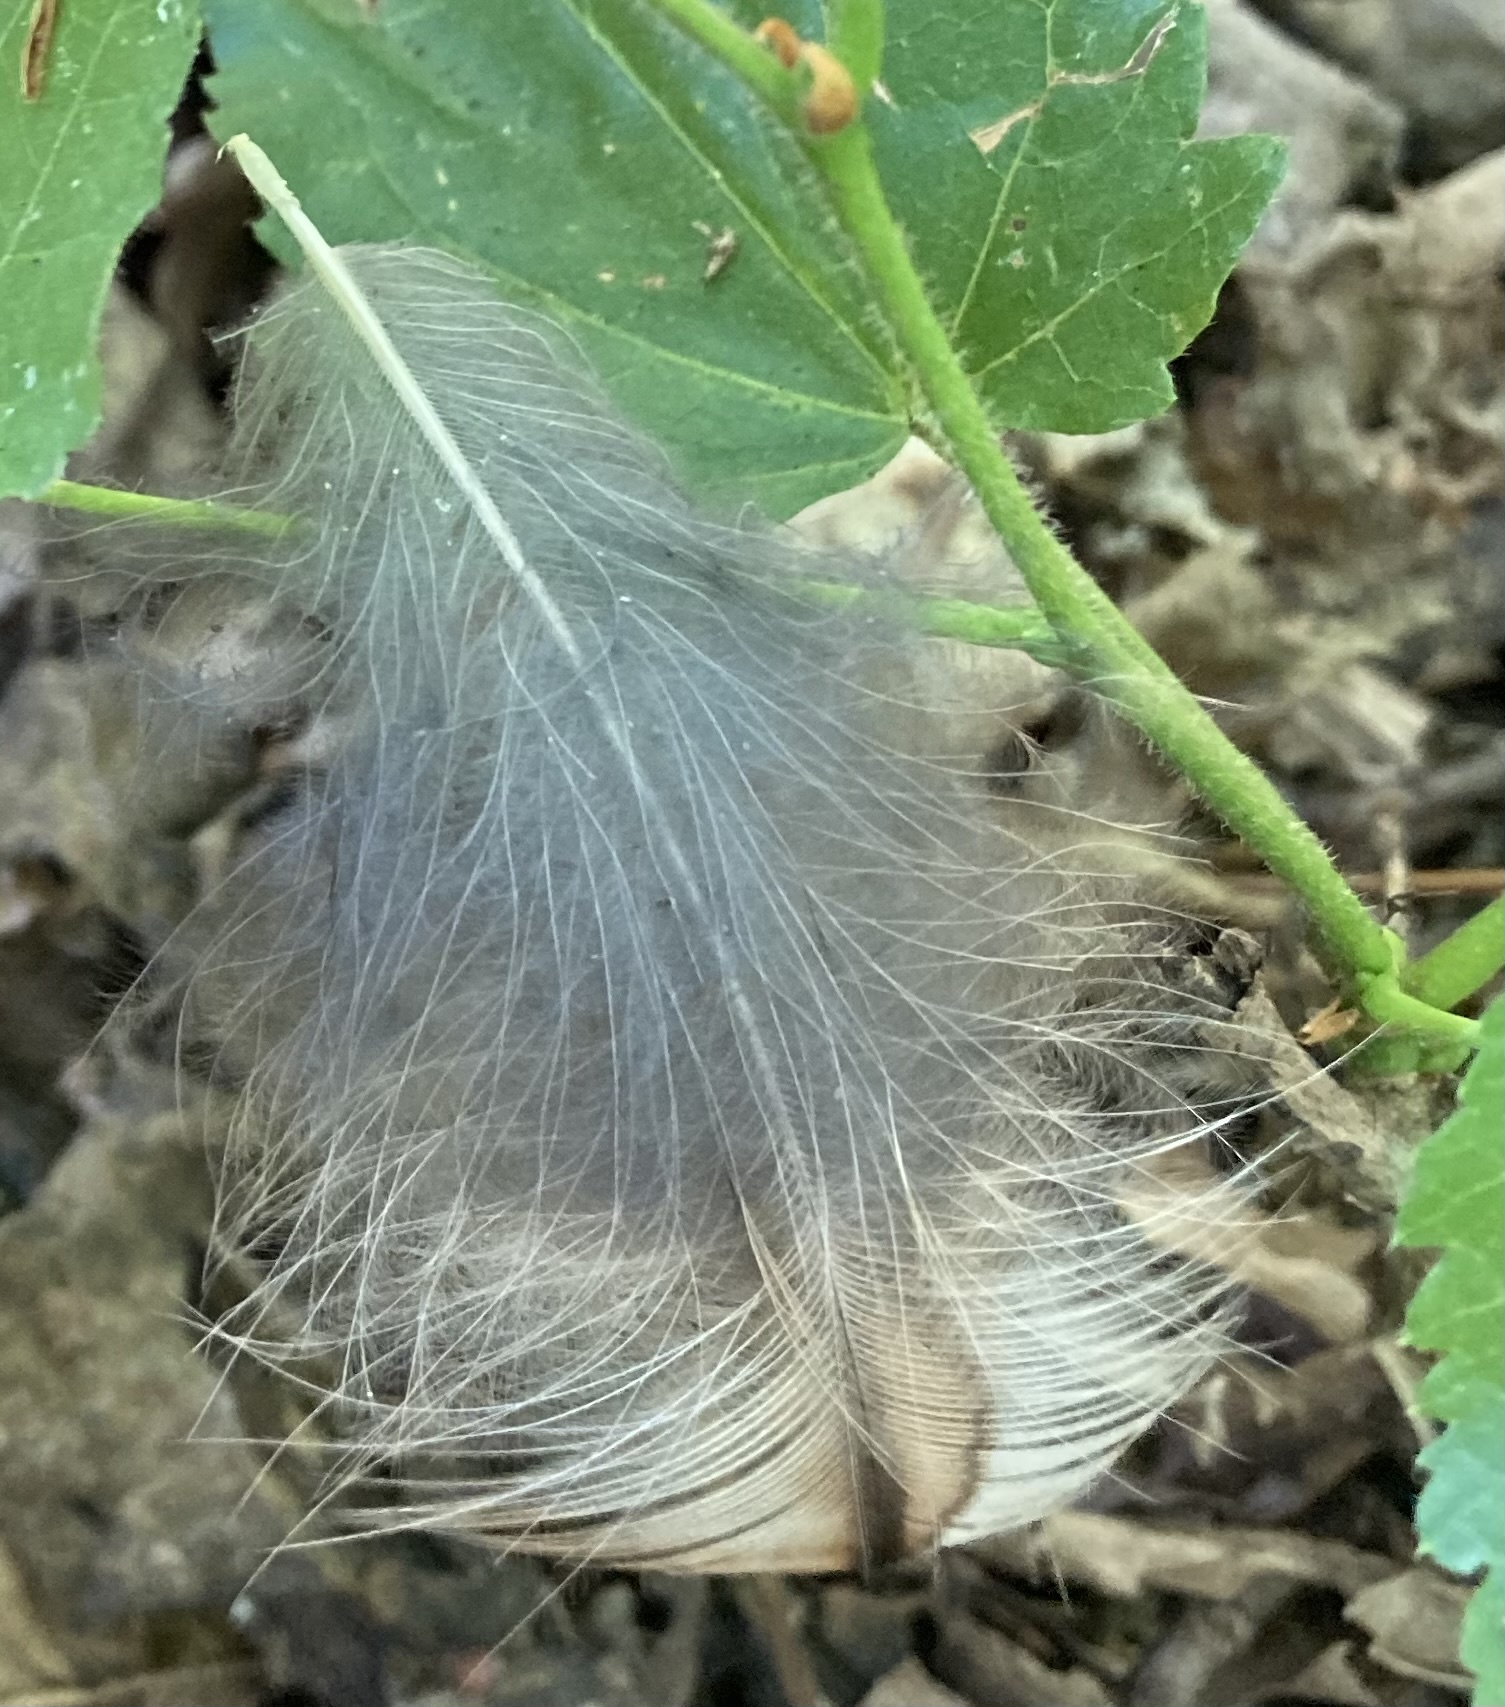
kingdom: Animalia
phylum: Chordata
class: Aves
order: Strigiformes
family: Strigidae
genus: Strix
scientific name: Strix aluco
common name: Tawny owl
